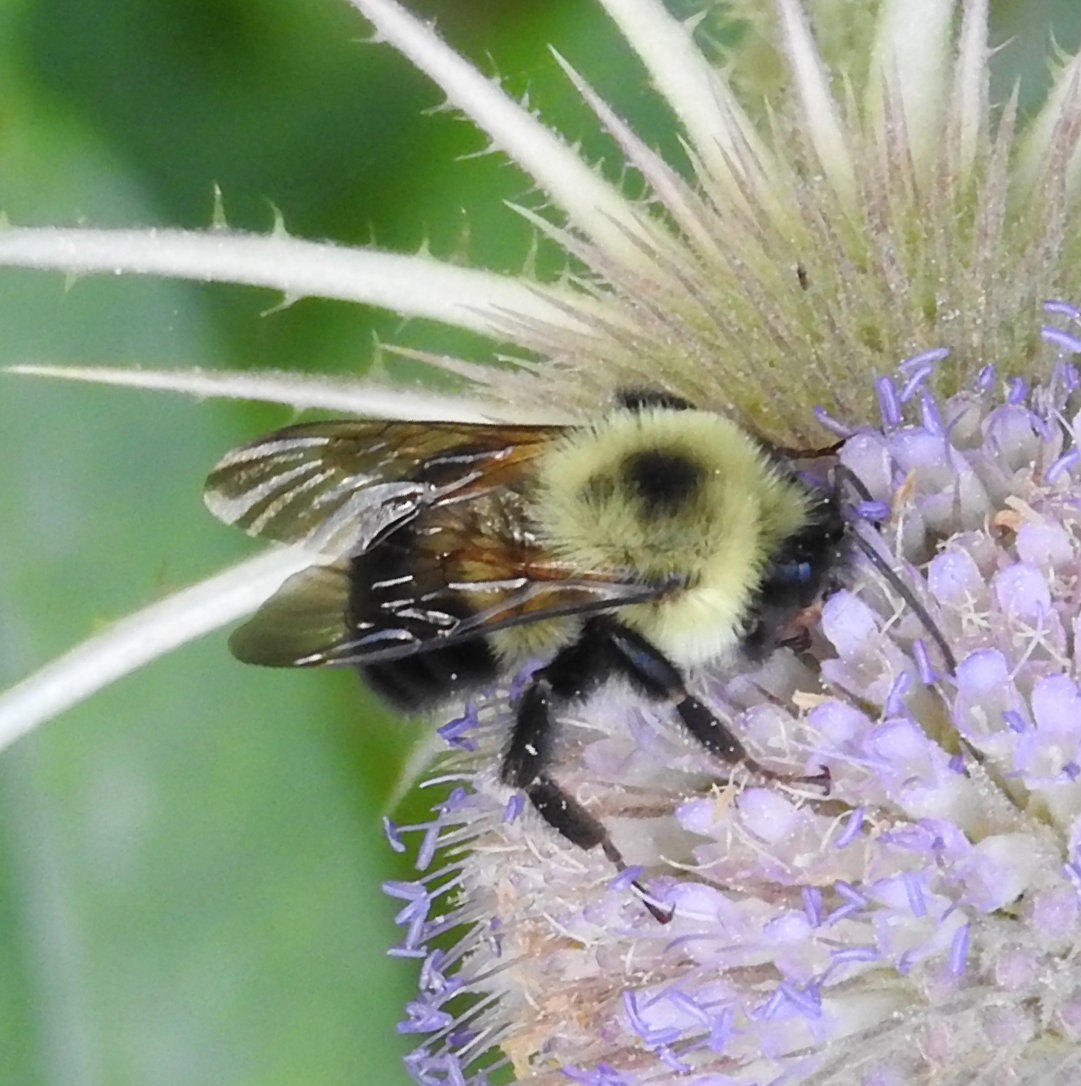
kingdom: Animalia
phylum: Arthropoda
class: Insecta
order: Hymenoptera
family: Apidae
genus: Bombus
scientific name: Bombus bimaculatus
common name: Two-spotted bumble bee
